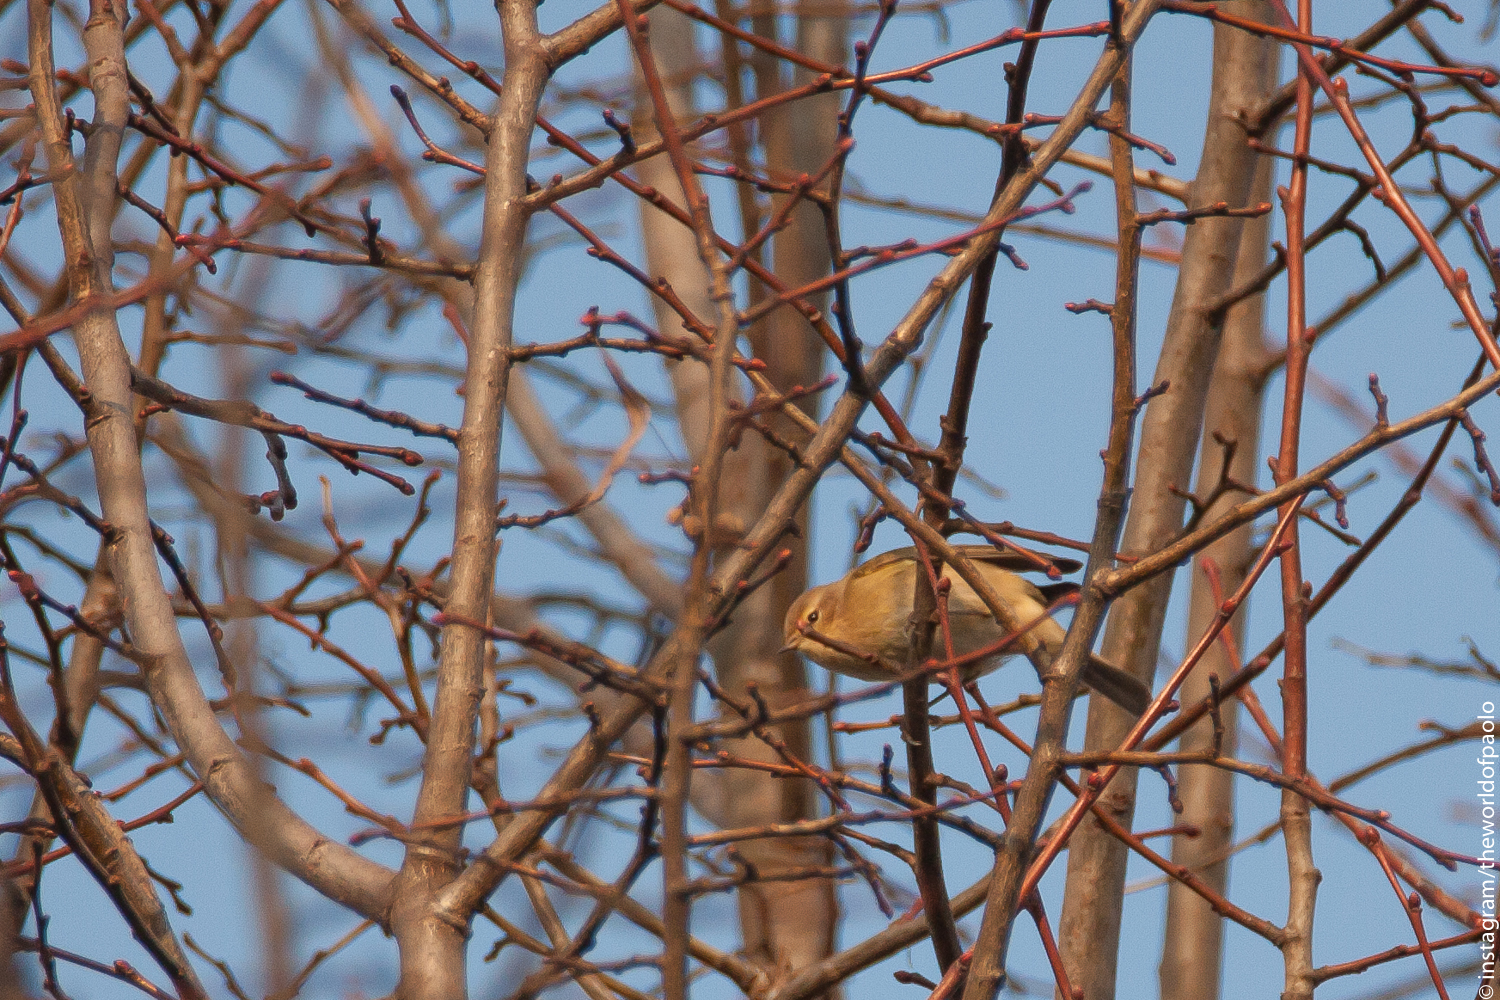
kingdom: Animalia
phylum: Chordata
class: Aves
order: Passeriformes
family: Phylloscopidae
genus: Phylloscopus
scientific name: Phylloscopus collybita
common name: Common chiffchaff
